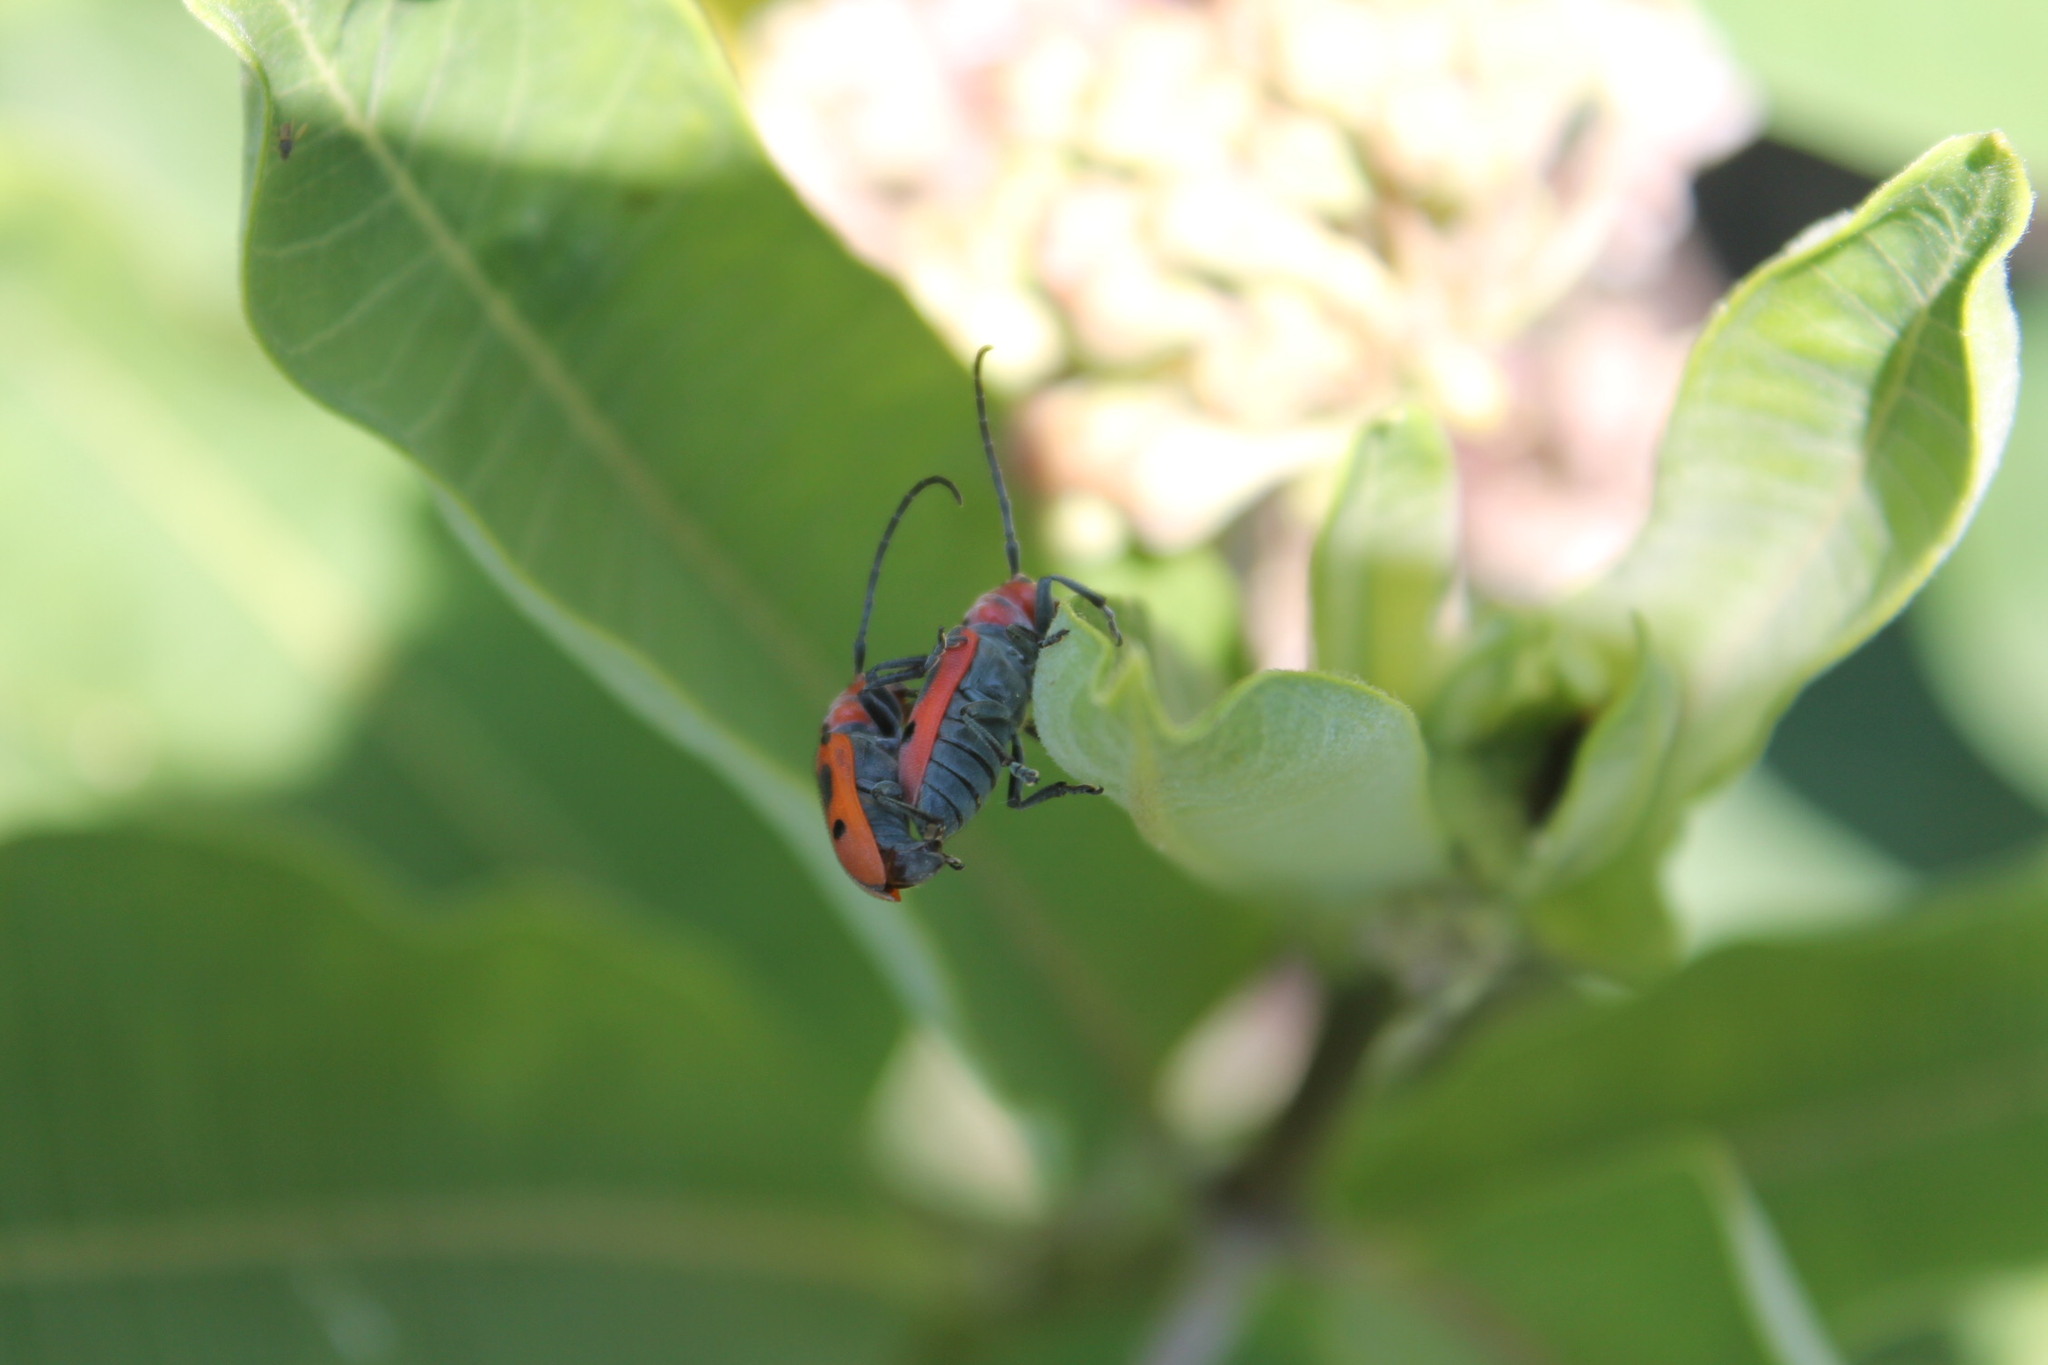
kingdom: Animalia
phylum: Arthropoda
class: Insecta
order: Coleoptera
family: Cerambycidae
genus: Tetraopes
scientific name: Tetraopes tetrophthalmus
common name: Red milkweed beetle
